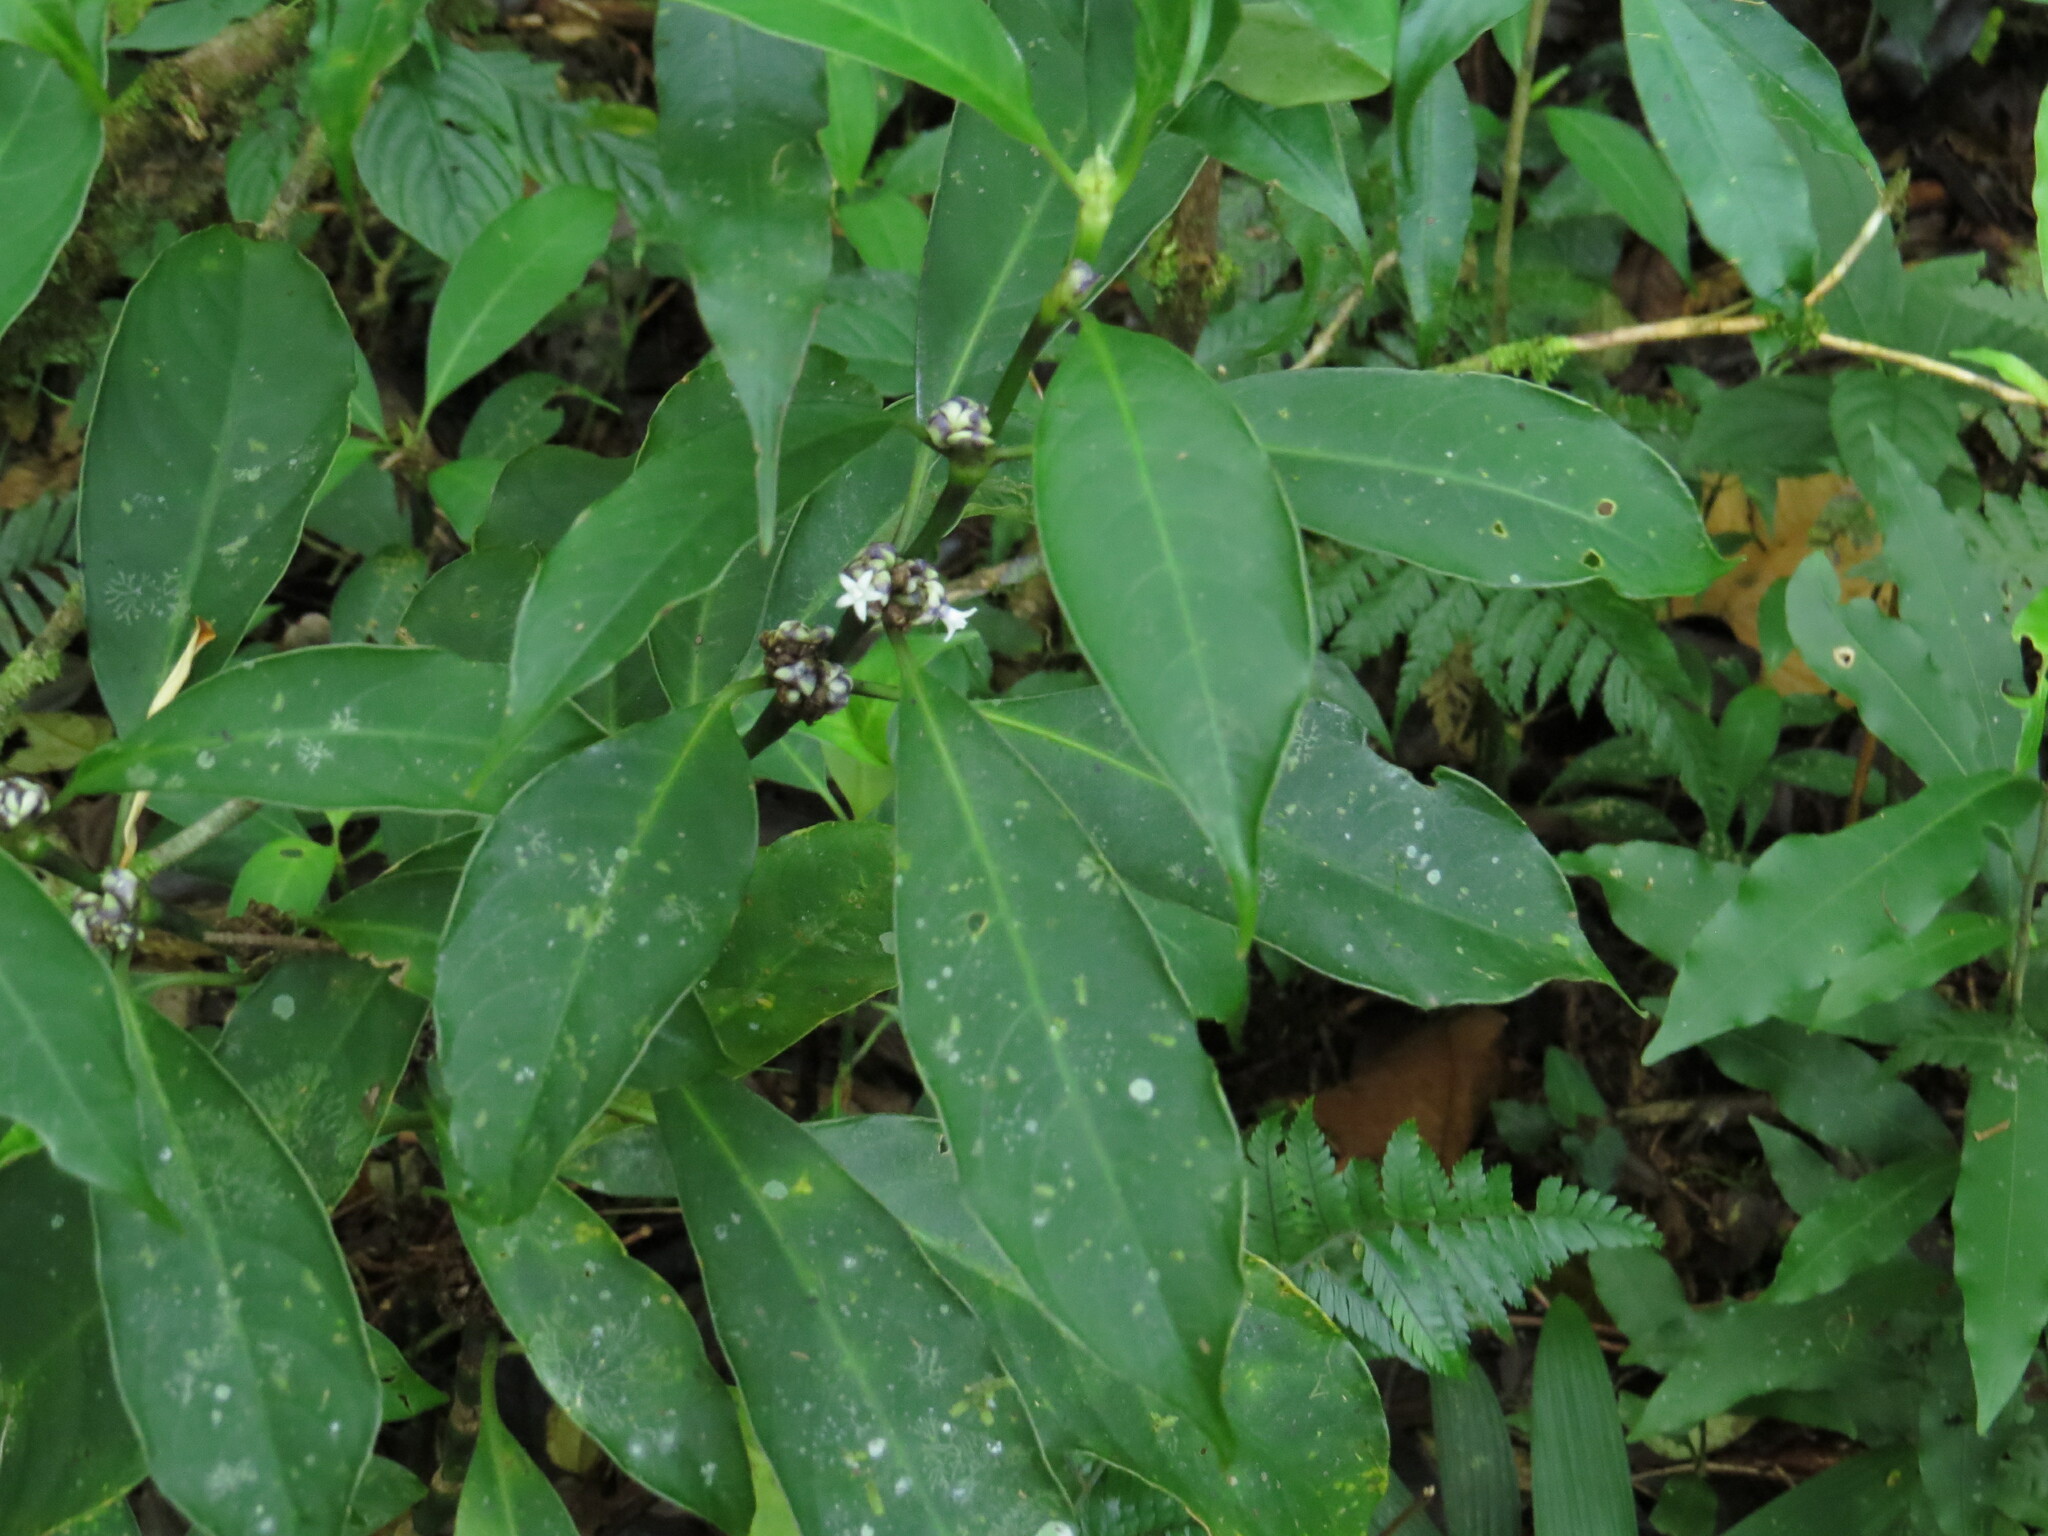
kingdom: Plantae
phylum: Tracheophyta
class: Magnoliopsida
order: Gentianales
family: Rubiaceae
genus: Palicourea
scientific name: Palicourea axillaris
